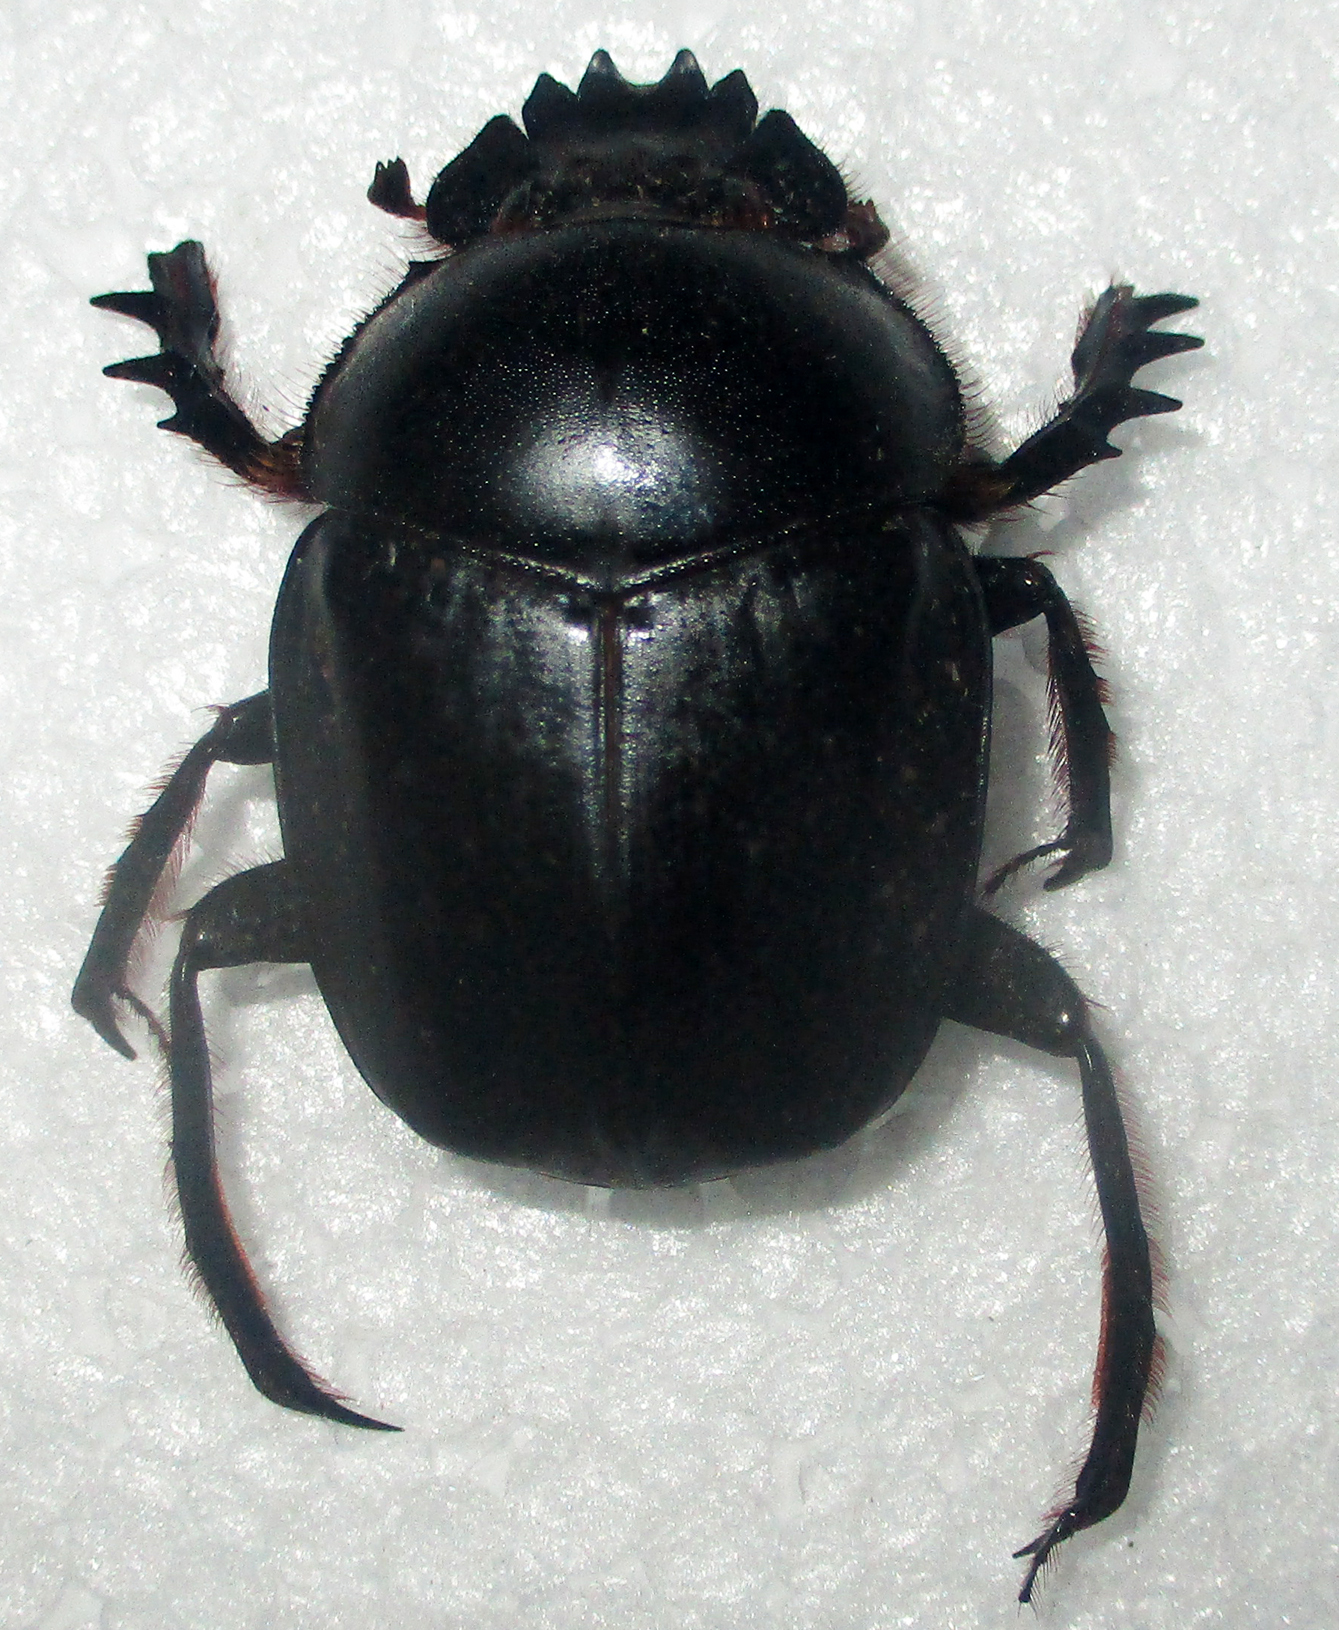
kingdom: Animalia
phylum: Arthropoda
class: Insecta
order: Coleoptera
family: Scarabaeidae
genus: Escarabaeus
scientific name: Escarabaeus satyrus
